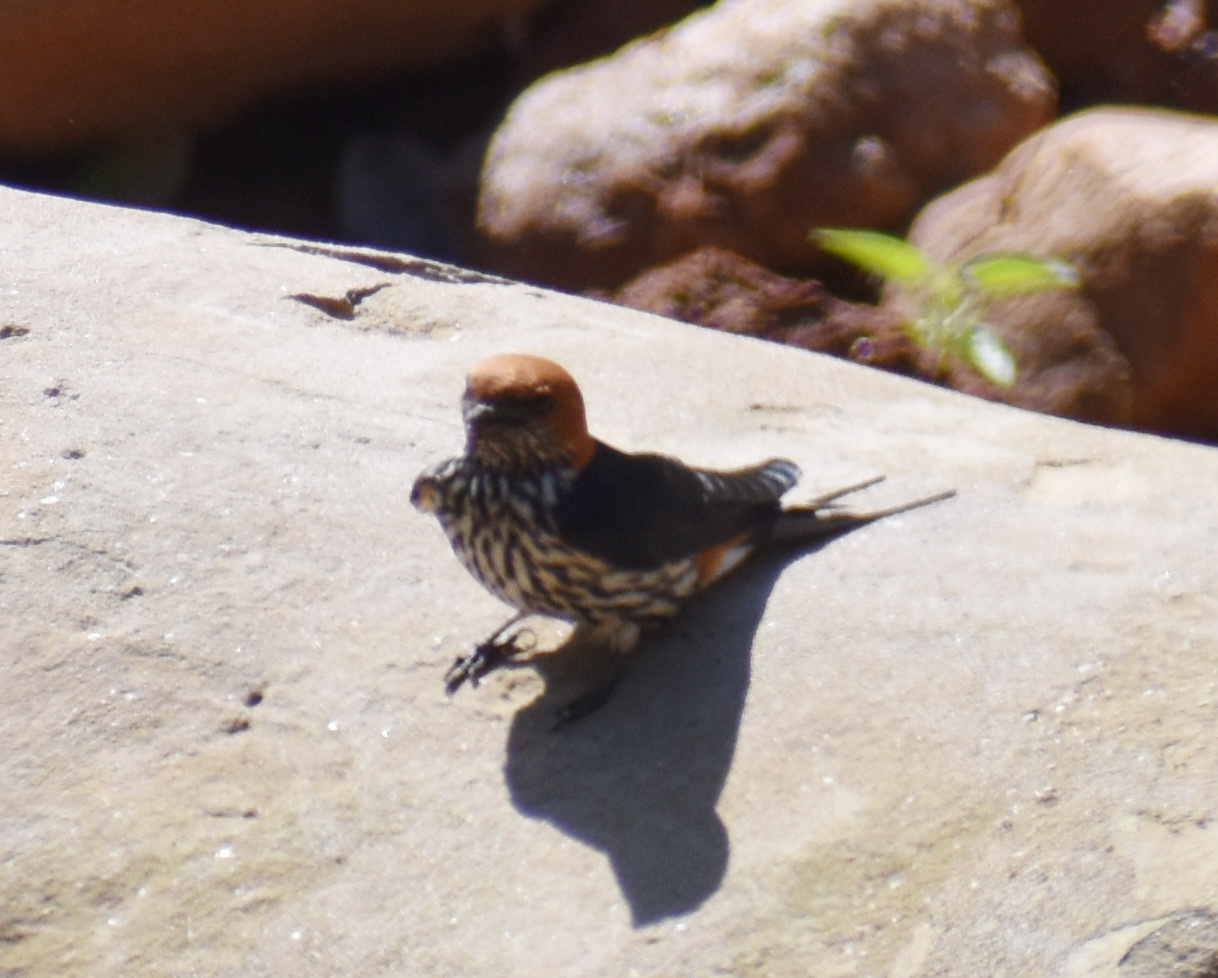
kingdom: Animalia
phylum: Chordata
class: Aves
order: Passeriformes
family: Hirundinidae
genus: Cecropis
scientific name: Cecropis abyssinica
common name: Lesser striped-swallow
